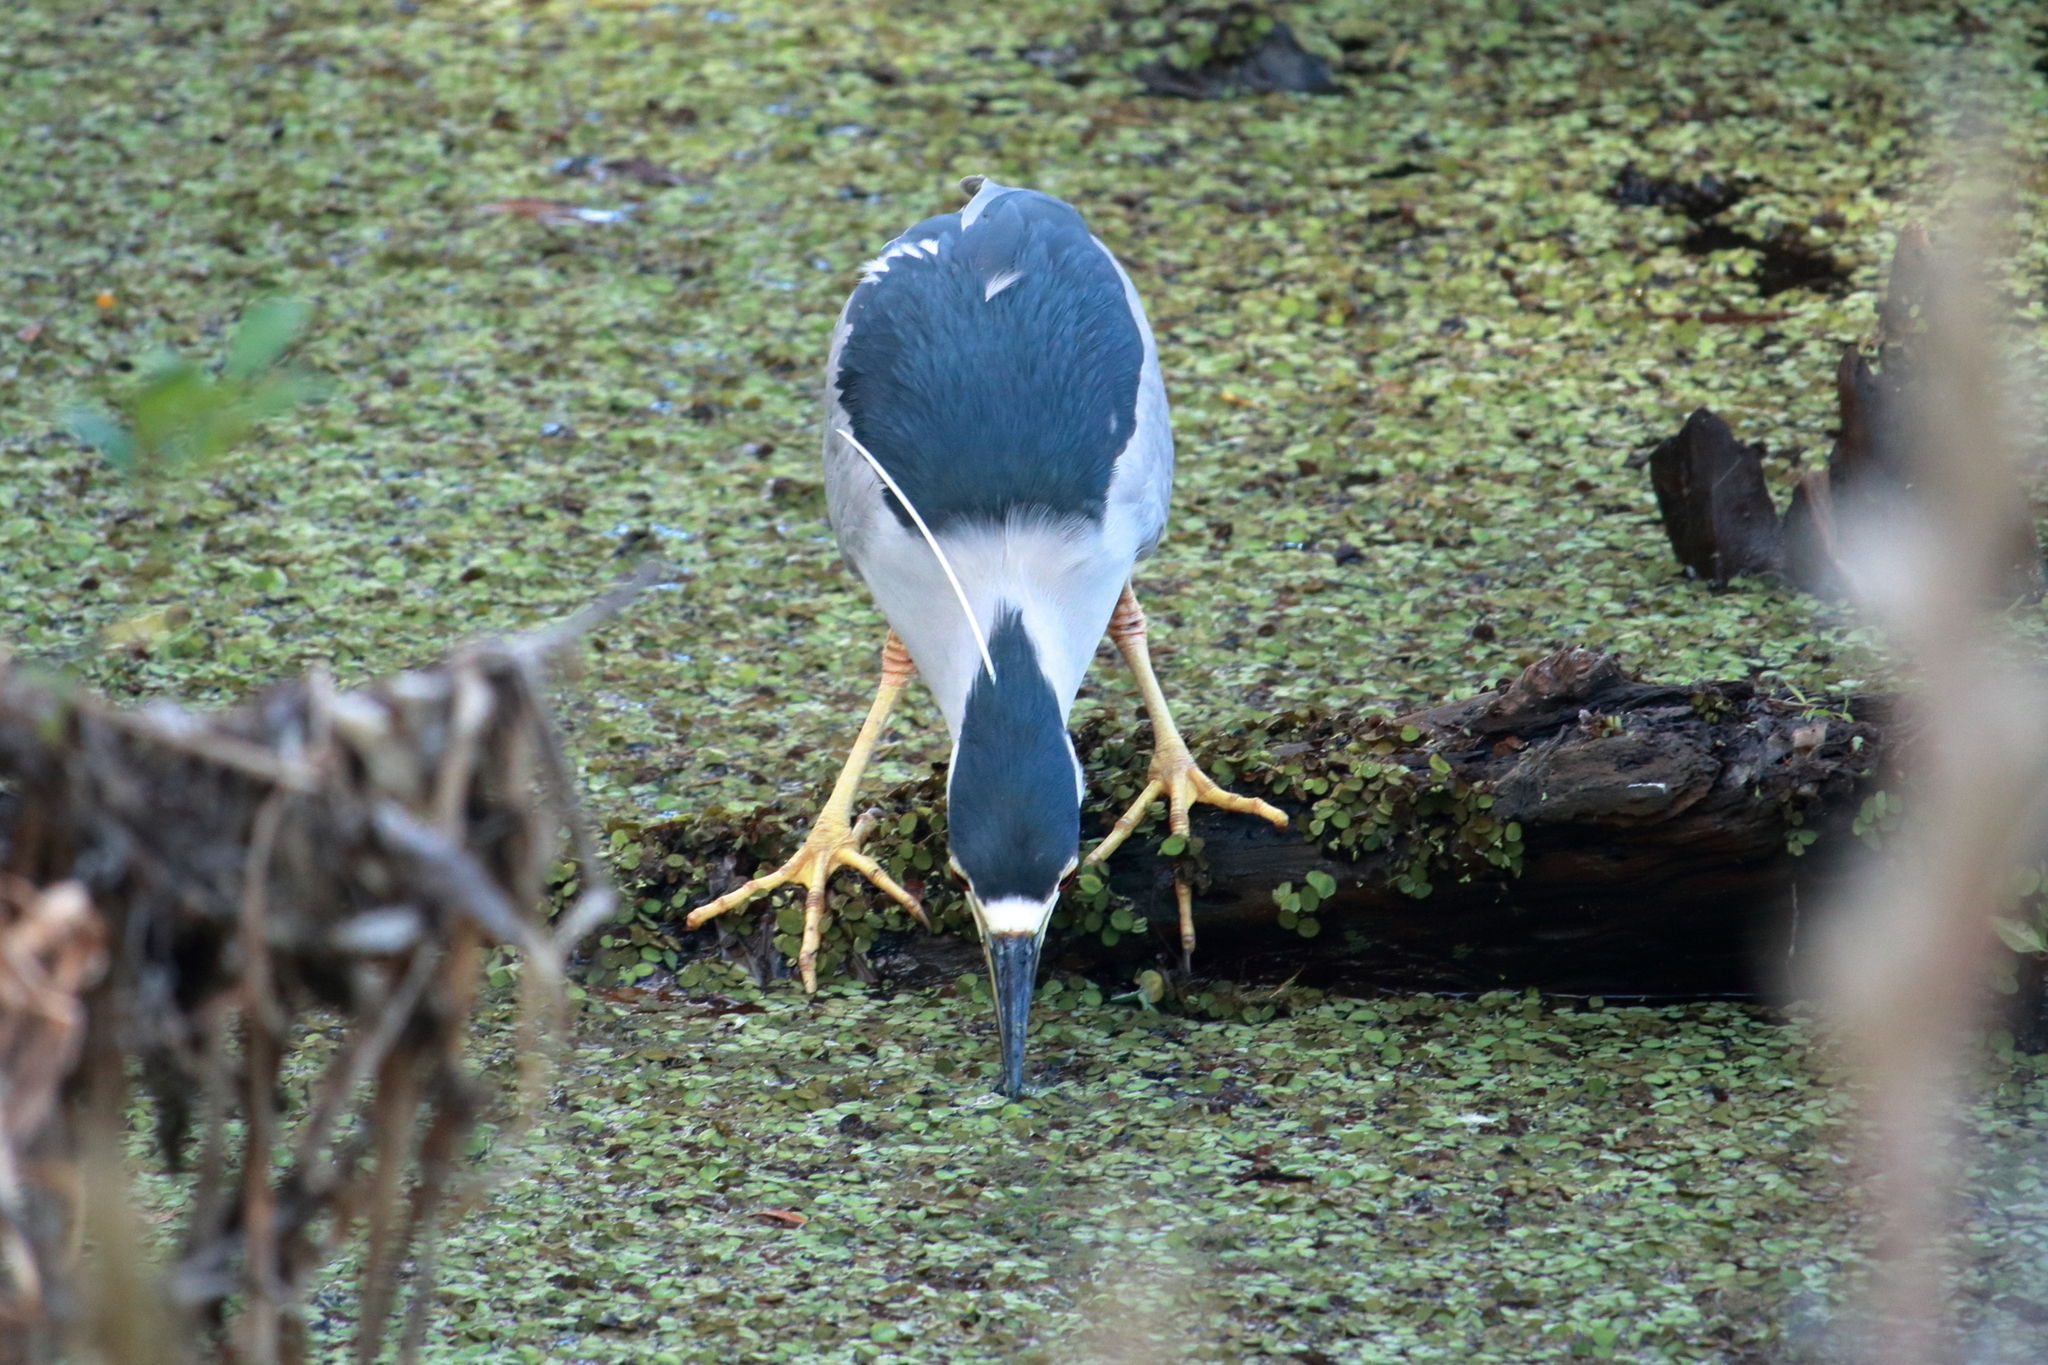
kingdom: Animalia
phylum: Chordata
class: Aves
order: Pelecaniformes
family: Ardeidae
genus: Nycticorax
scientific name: Nycticorax nycticorax
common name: Black-crowned night heron
